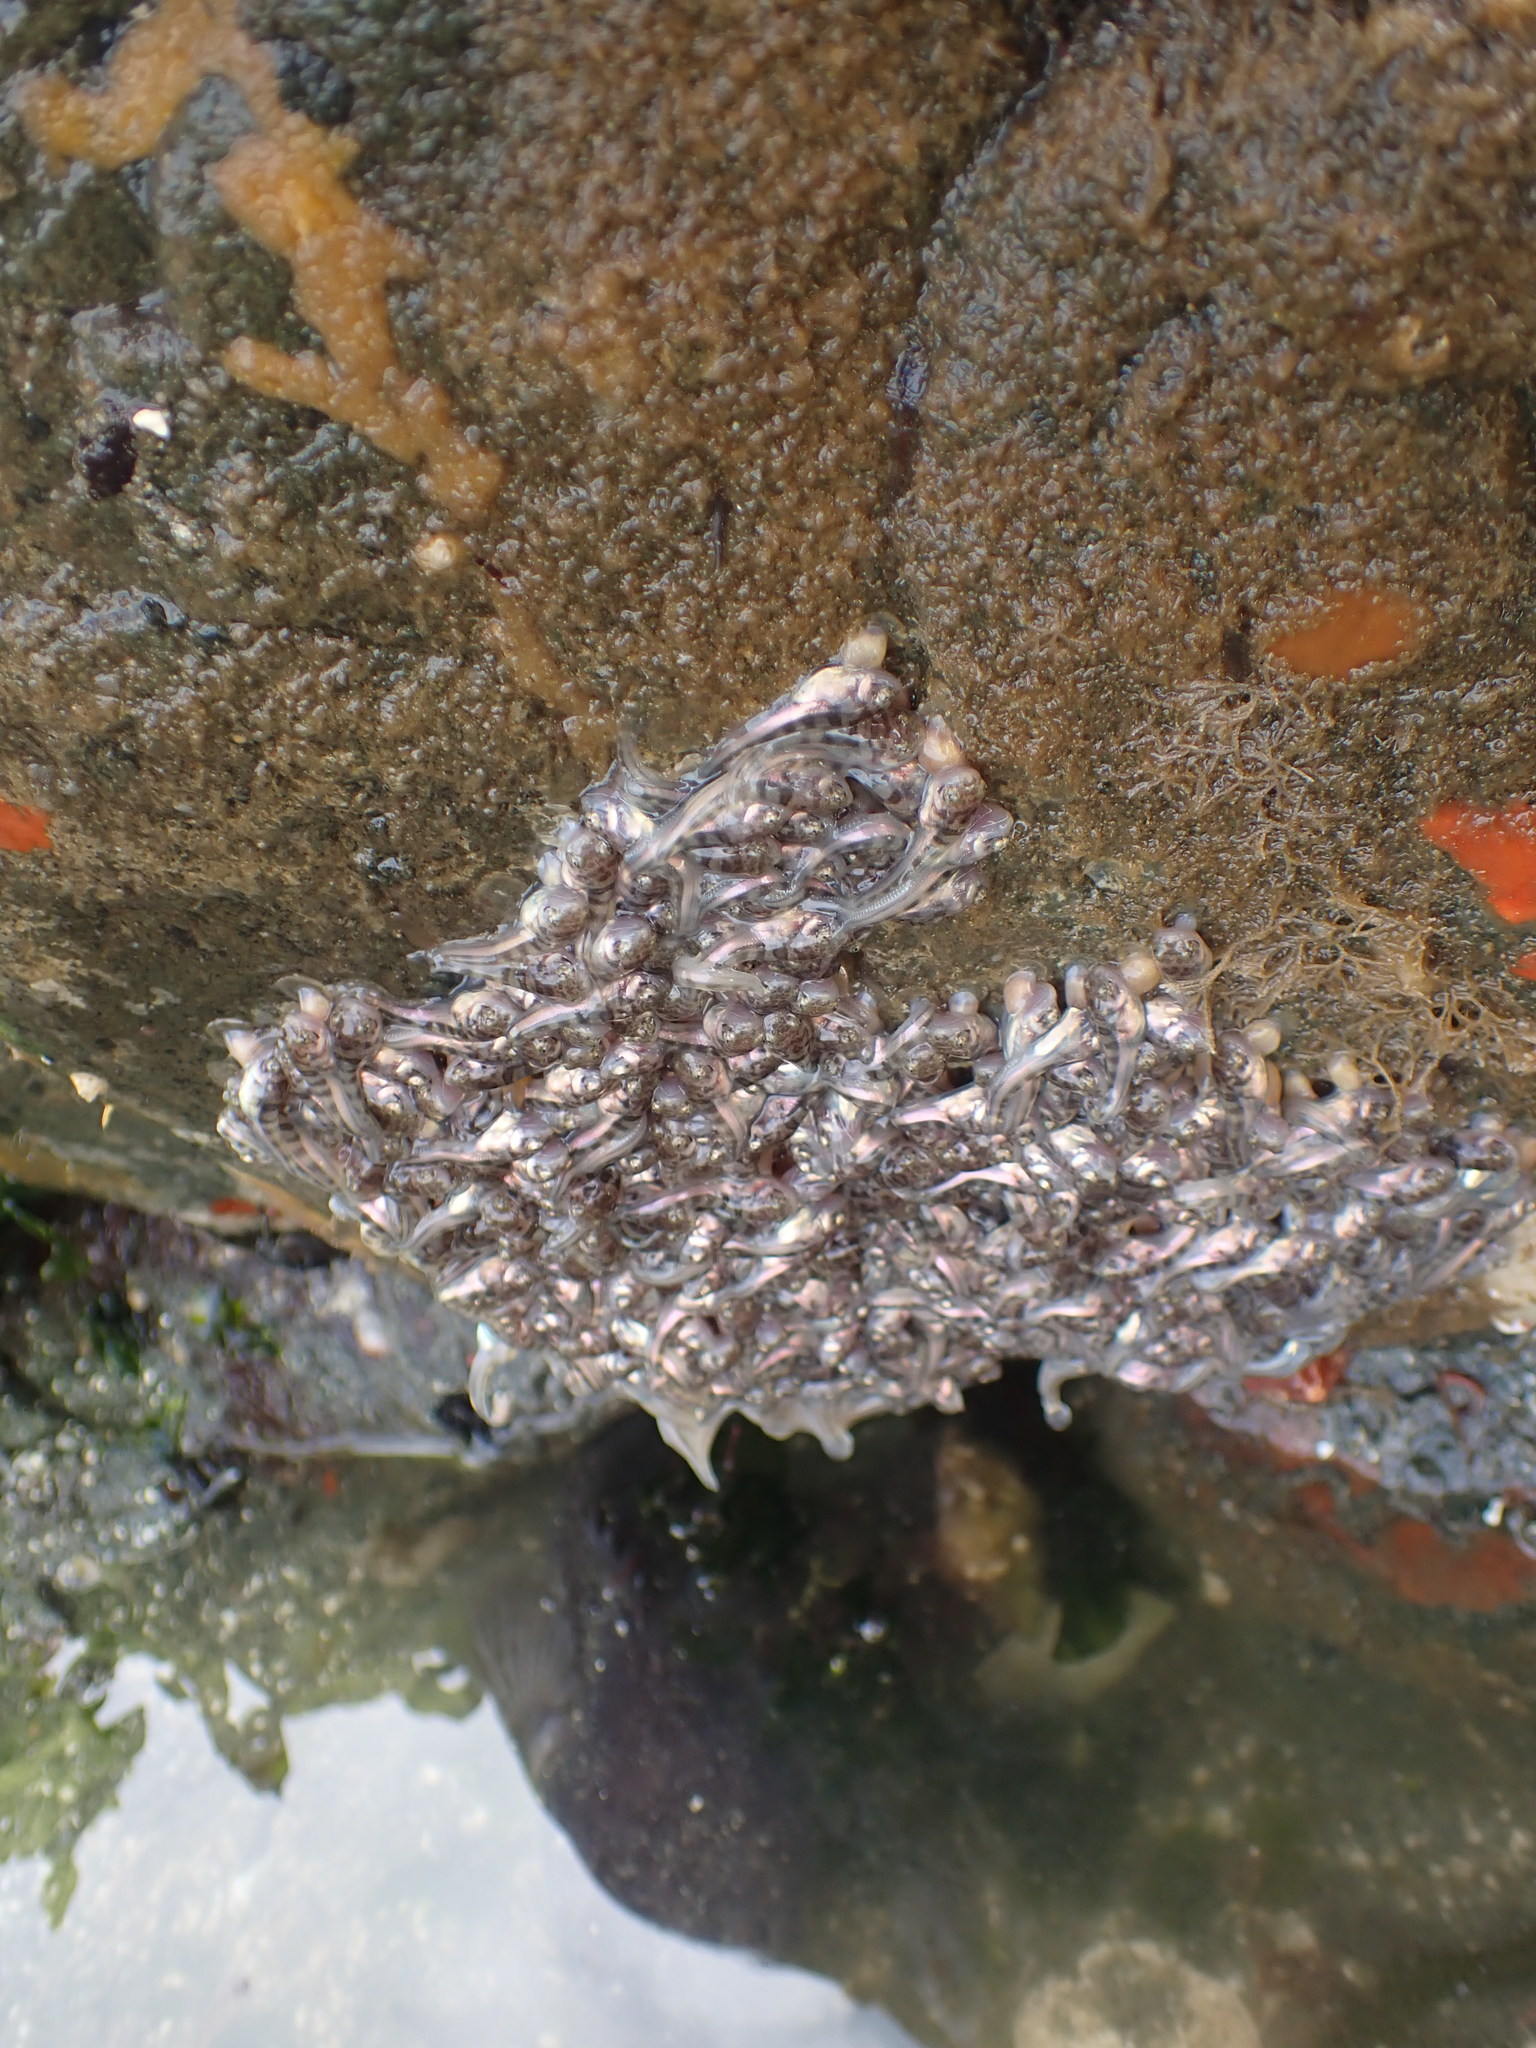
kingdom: Animalia
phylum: Chordata
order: Batrachoidiformes
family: Batrachoididae
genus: Porichthys
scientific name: Porichthys notatus
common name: Plainfin midshipman
